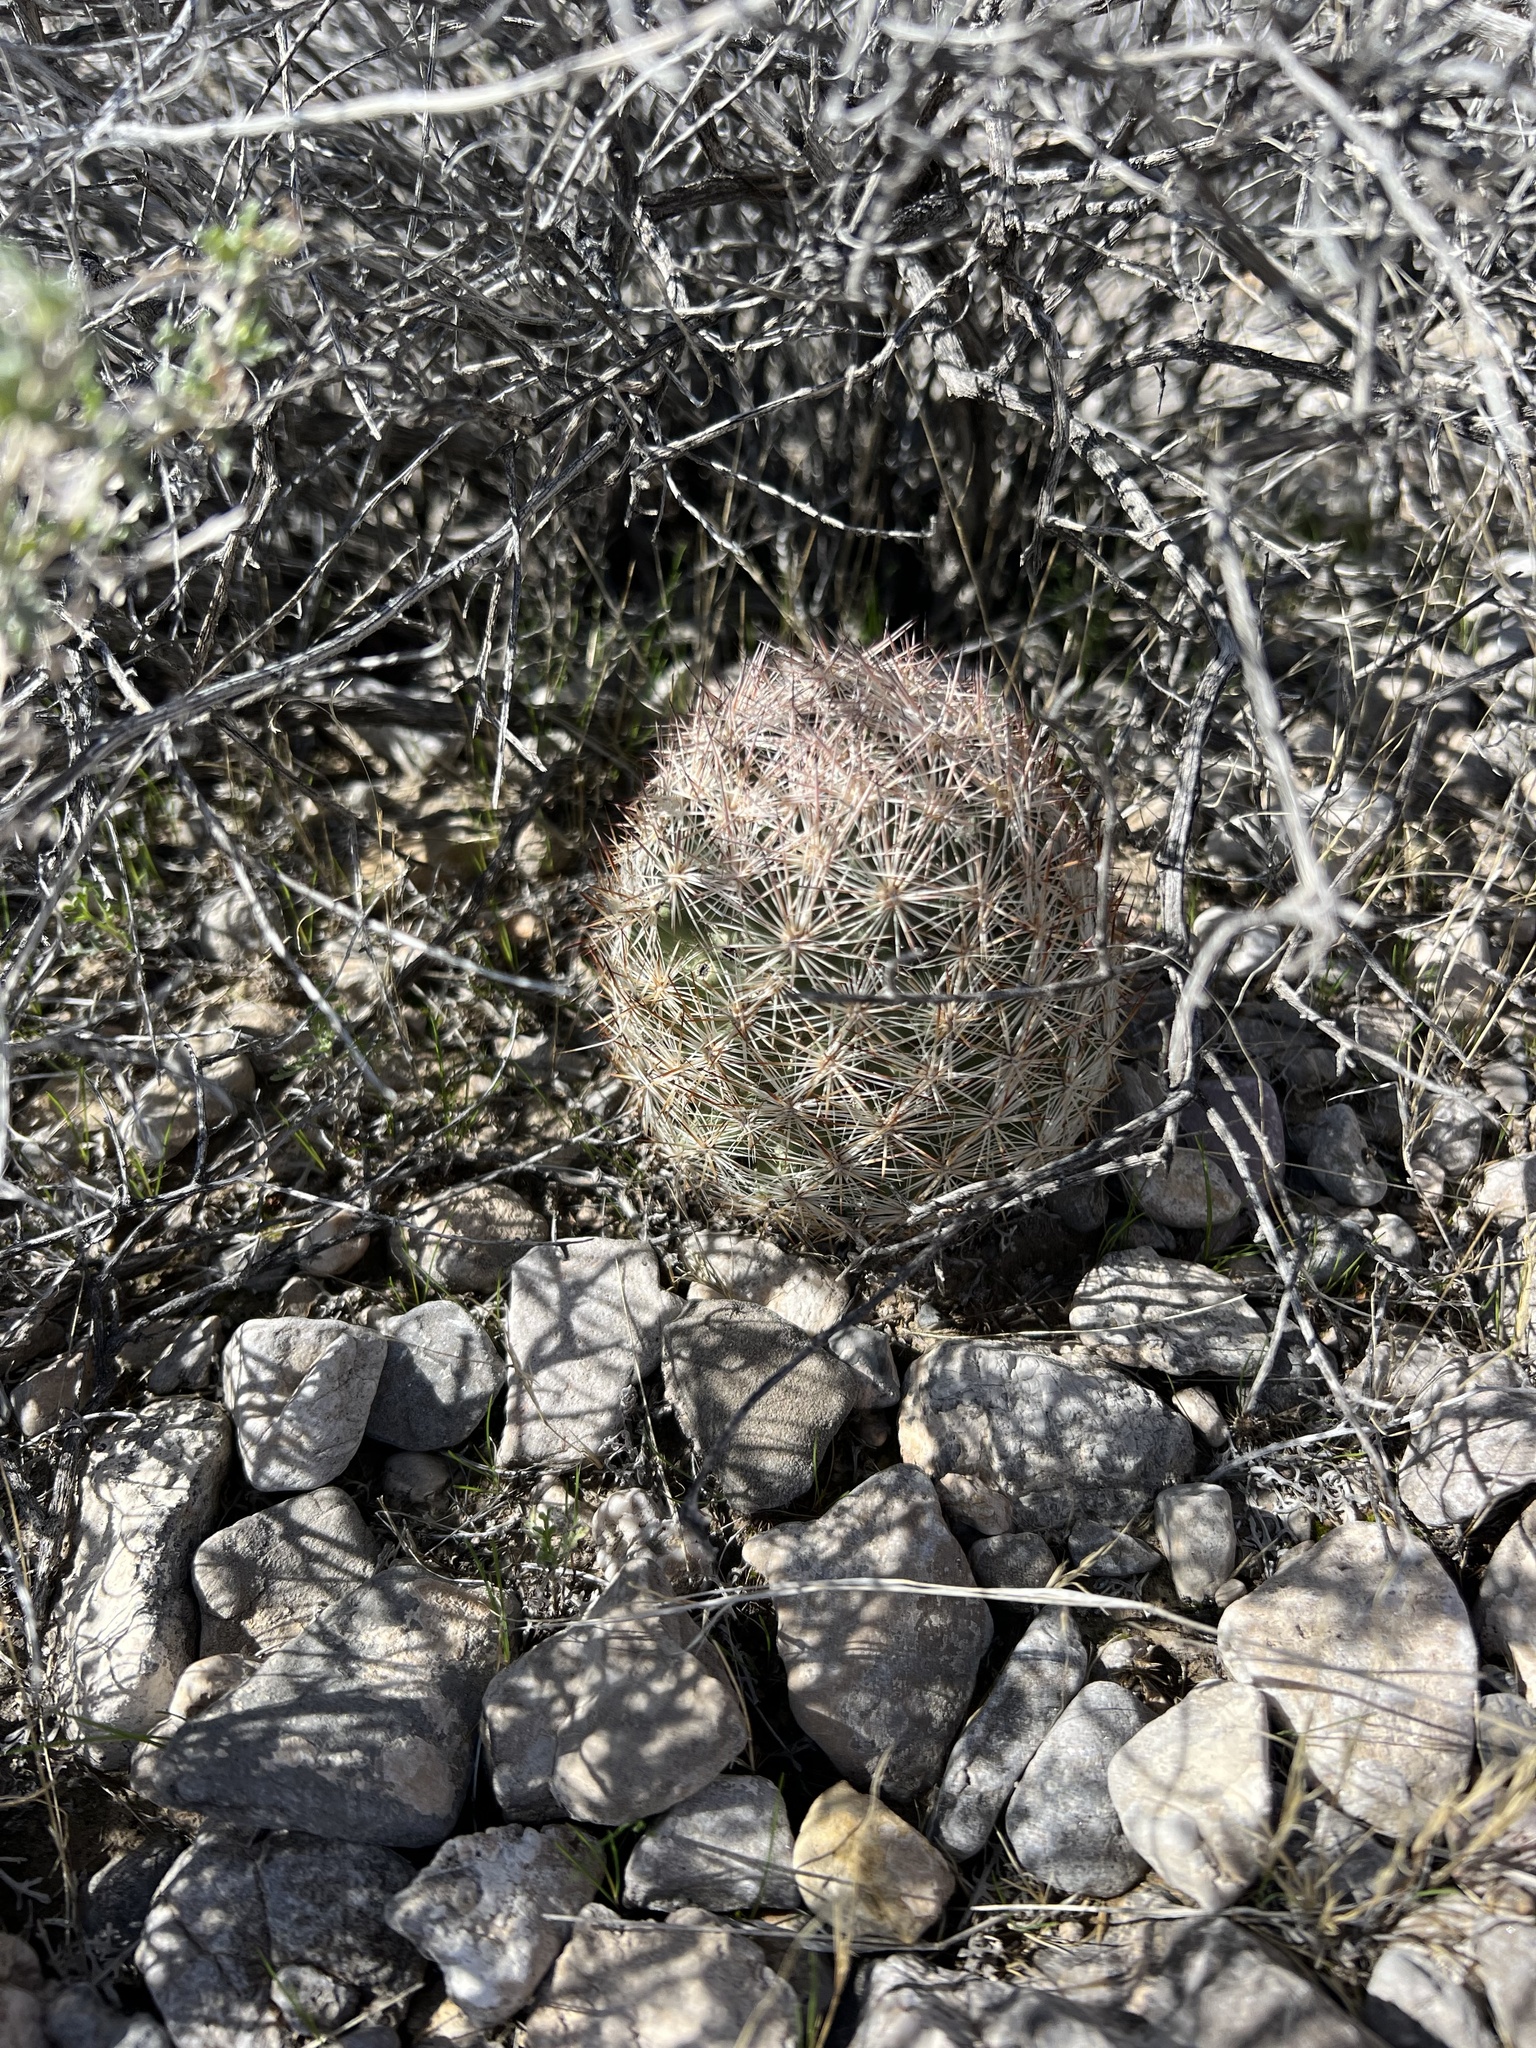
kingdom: Plantae
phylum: Tracheophyta
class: Magnoliopsida
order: Caryophyllales
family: Cactaceae
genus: Pelecyphora
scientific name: Pelecyphora dasyacantha
